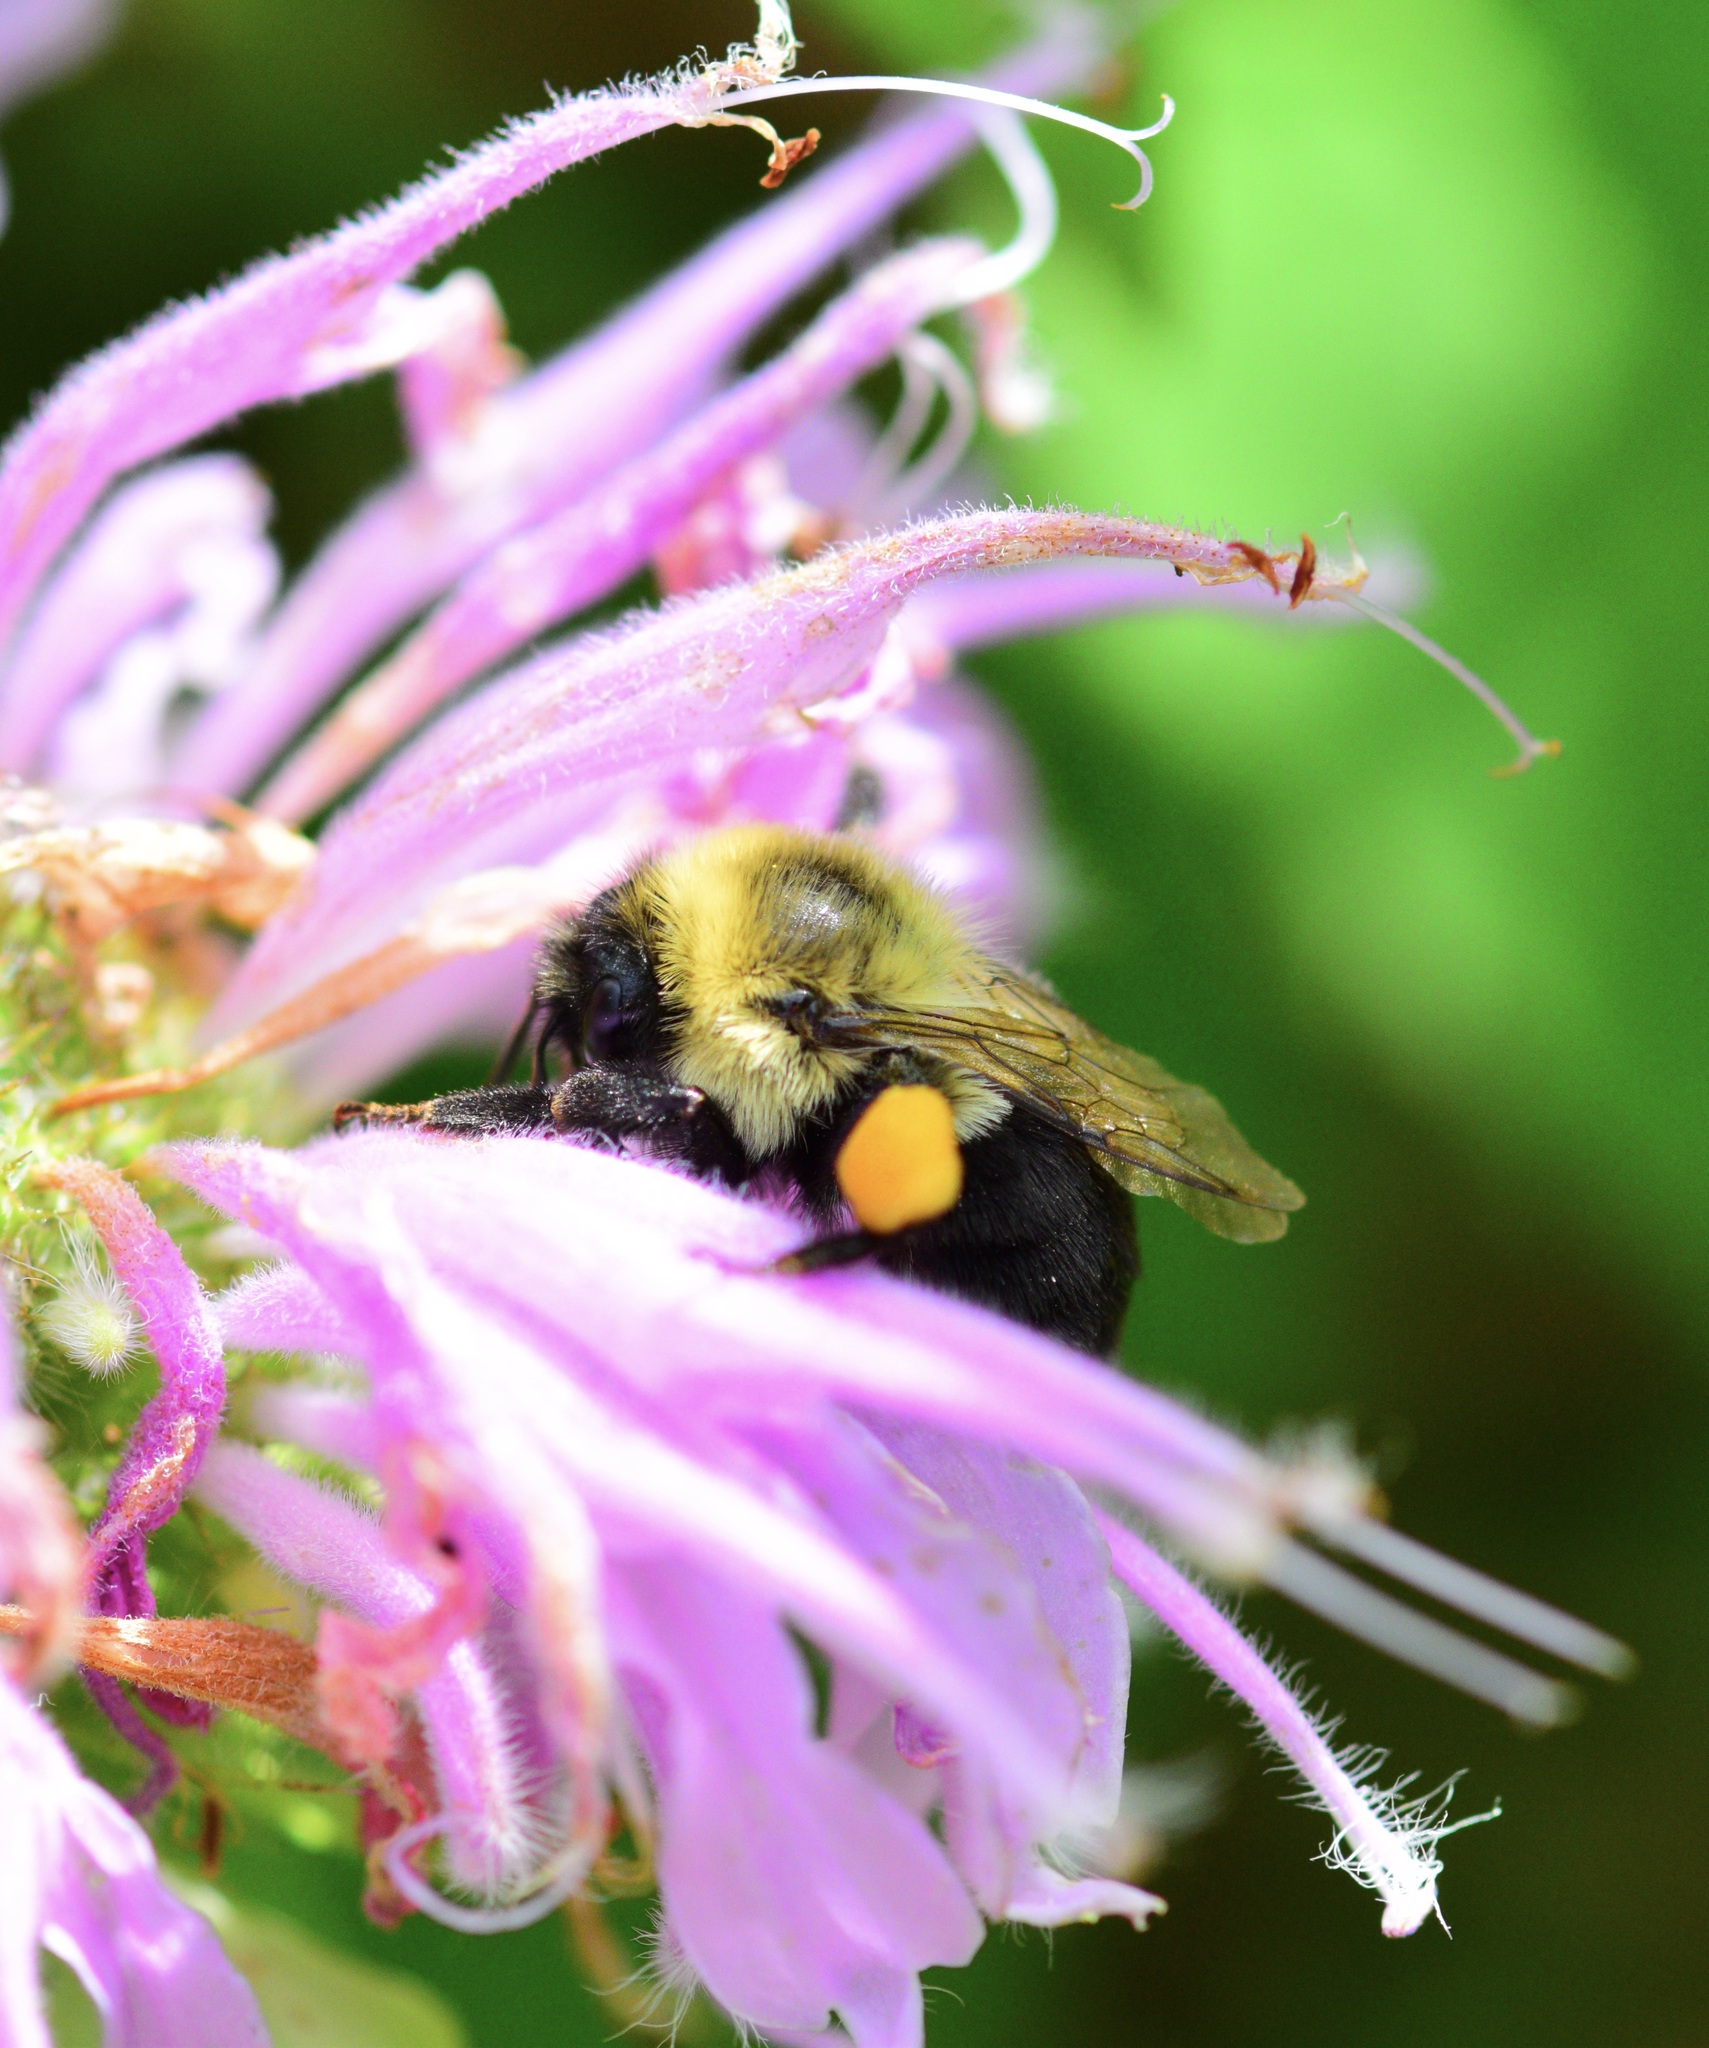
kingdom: Animalia
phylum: Arthropoda
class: Insecta
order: Hymenoptera
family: Apidae
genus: Bombus
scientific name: Bombus impatiens
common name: Common eastern bumble bee
